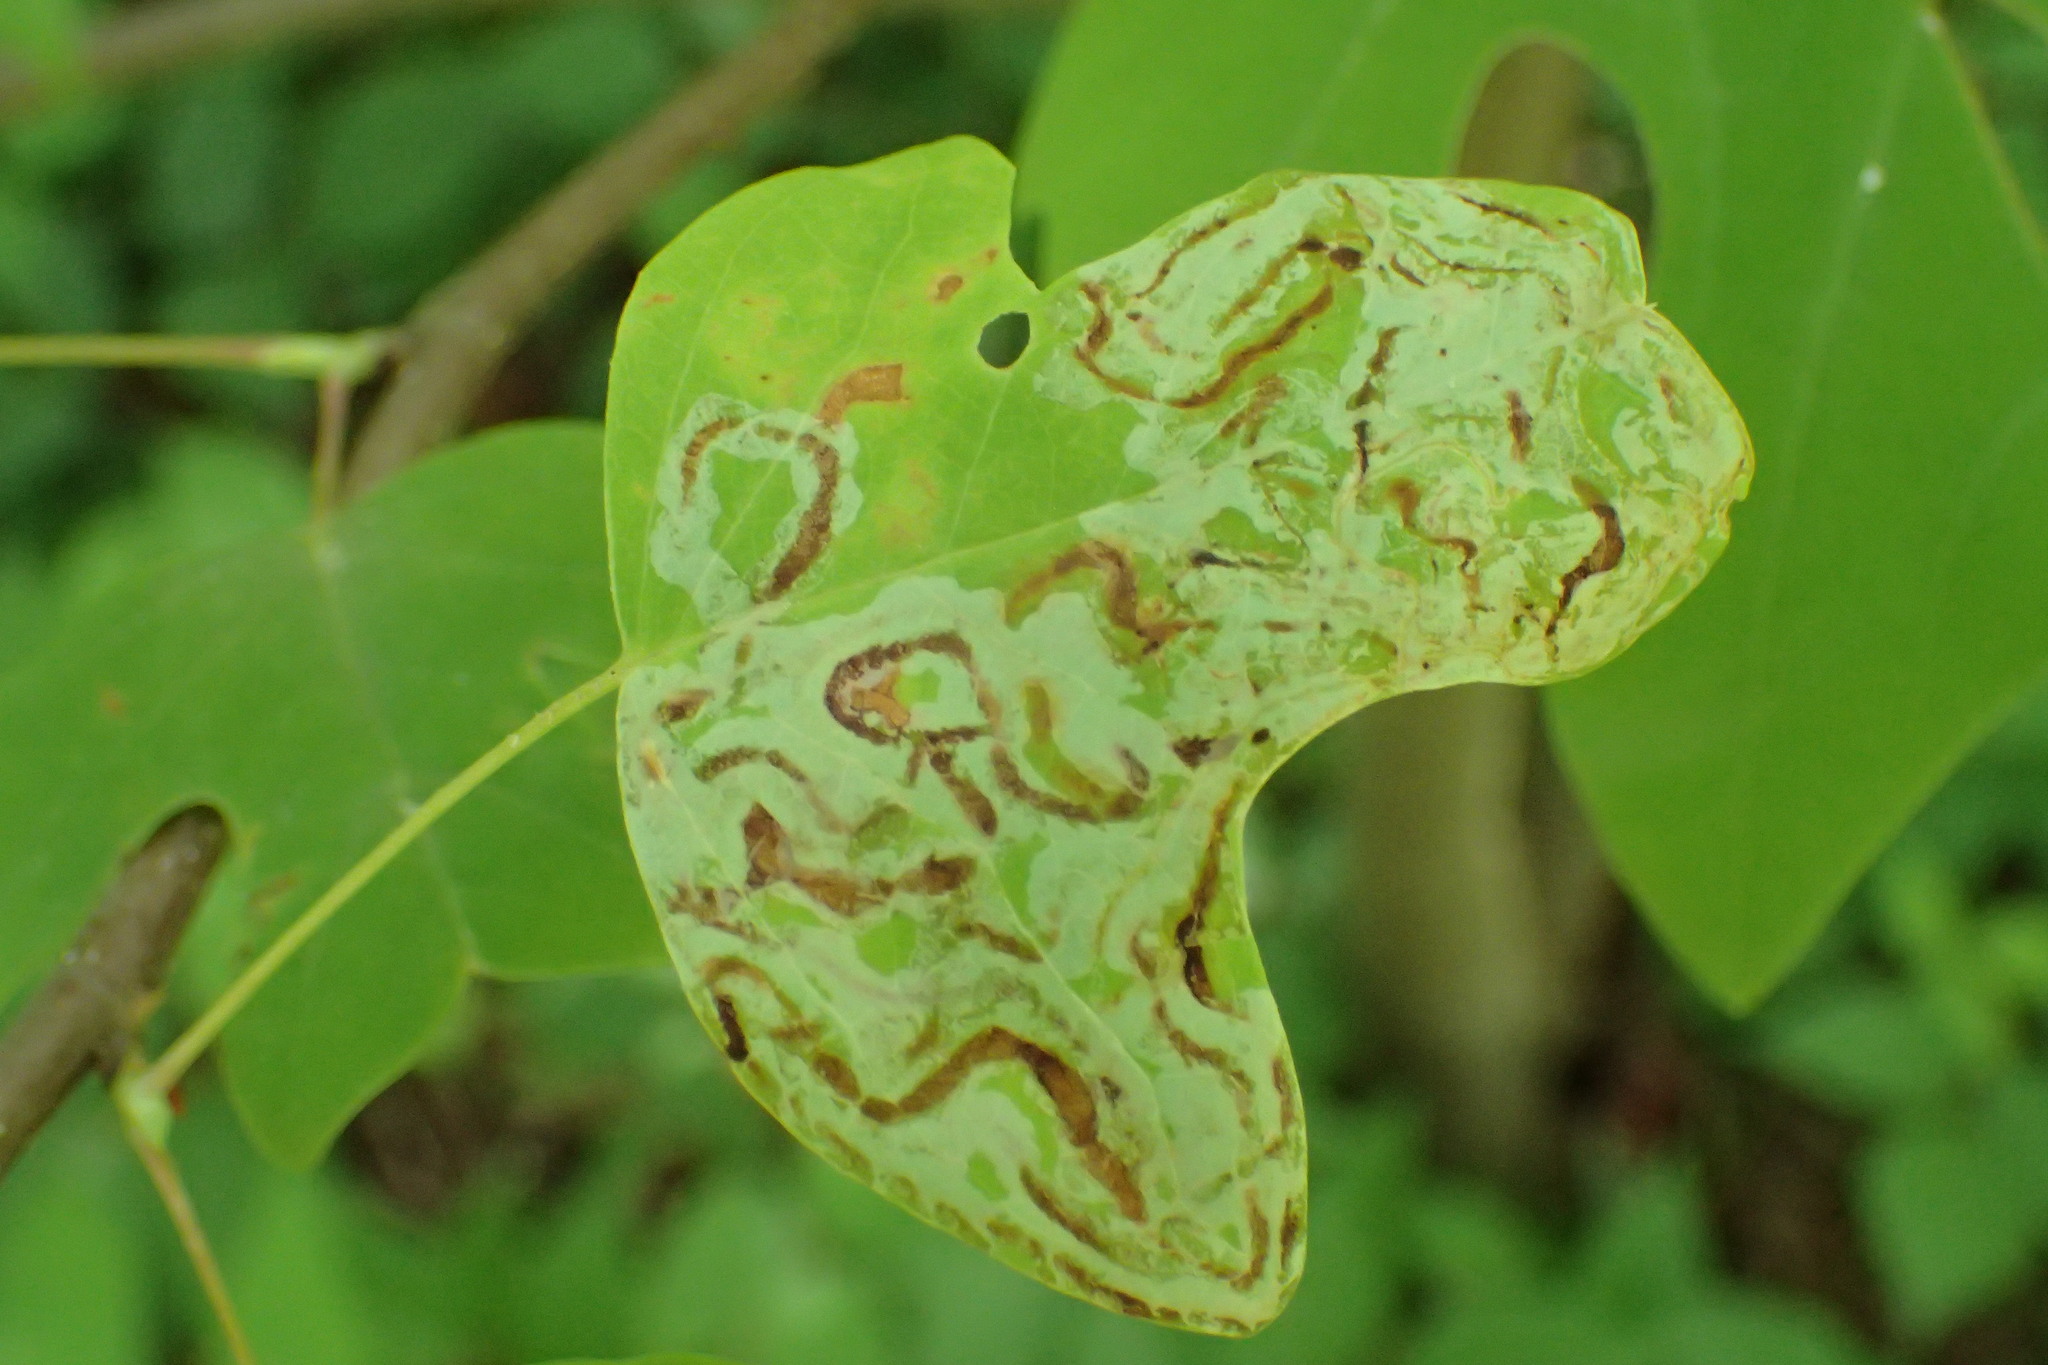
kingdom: Animalia
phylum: Arthropoda
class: Insecta
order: Lepidoptera
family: Gracillariidae
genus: Phyllocnistis
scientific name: Phyllocnistis liriodendronella
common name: Tulip tree leaf miner
